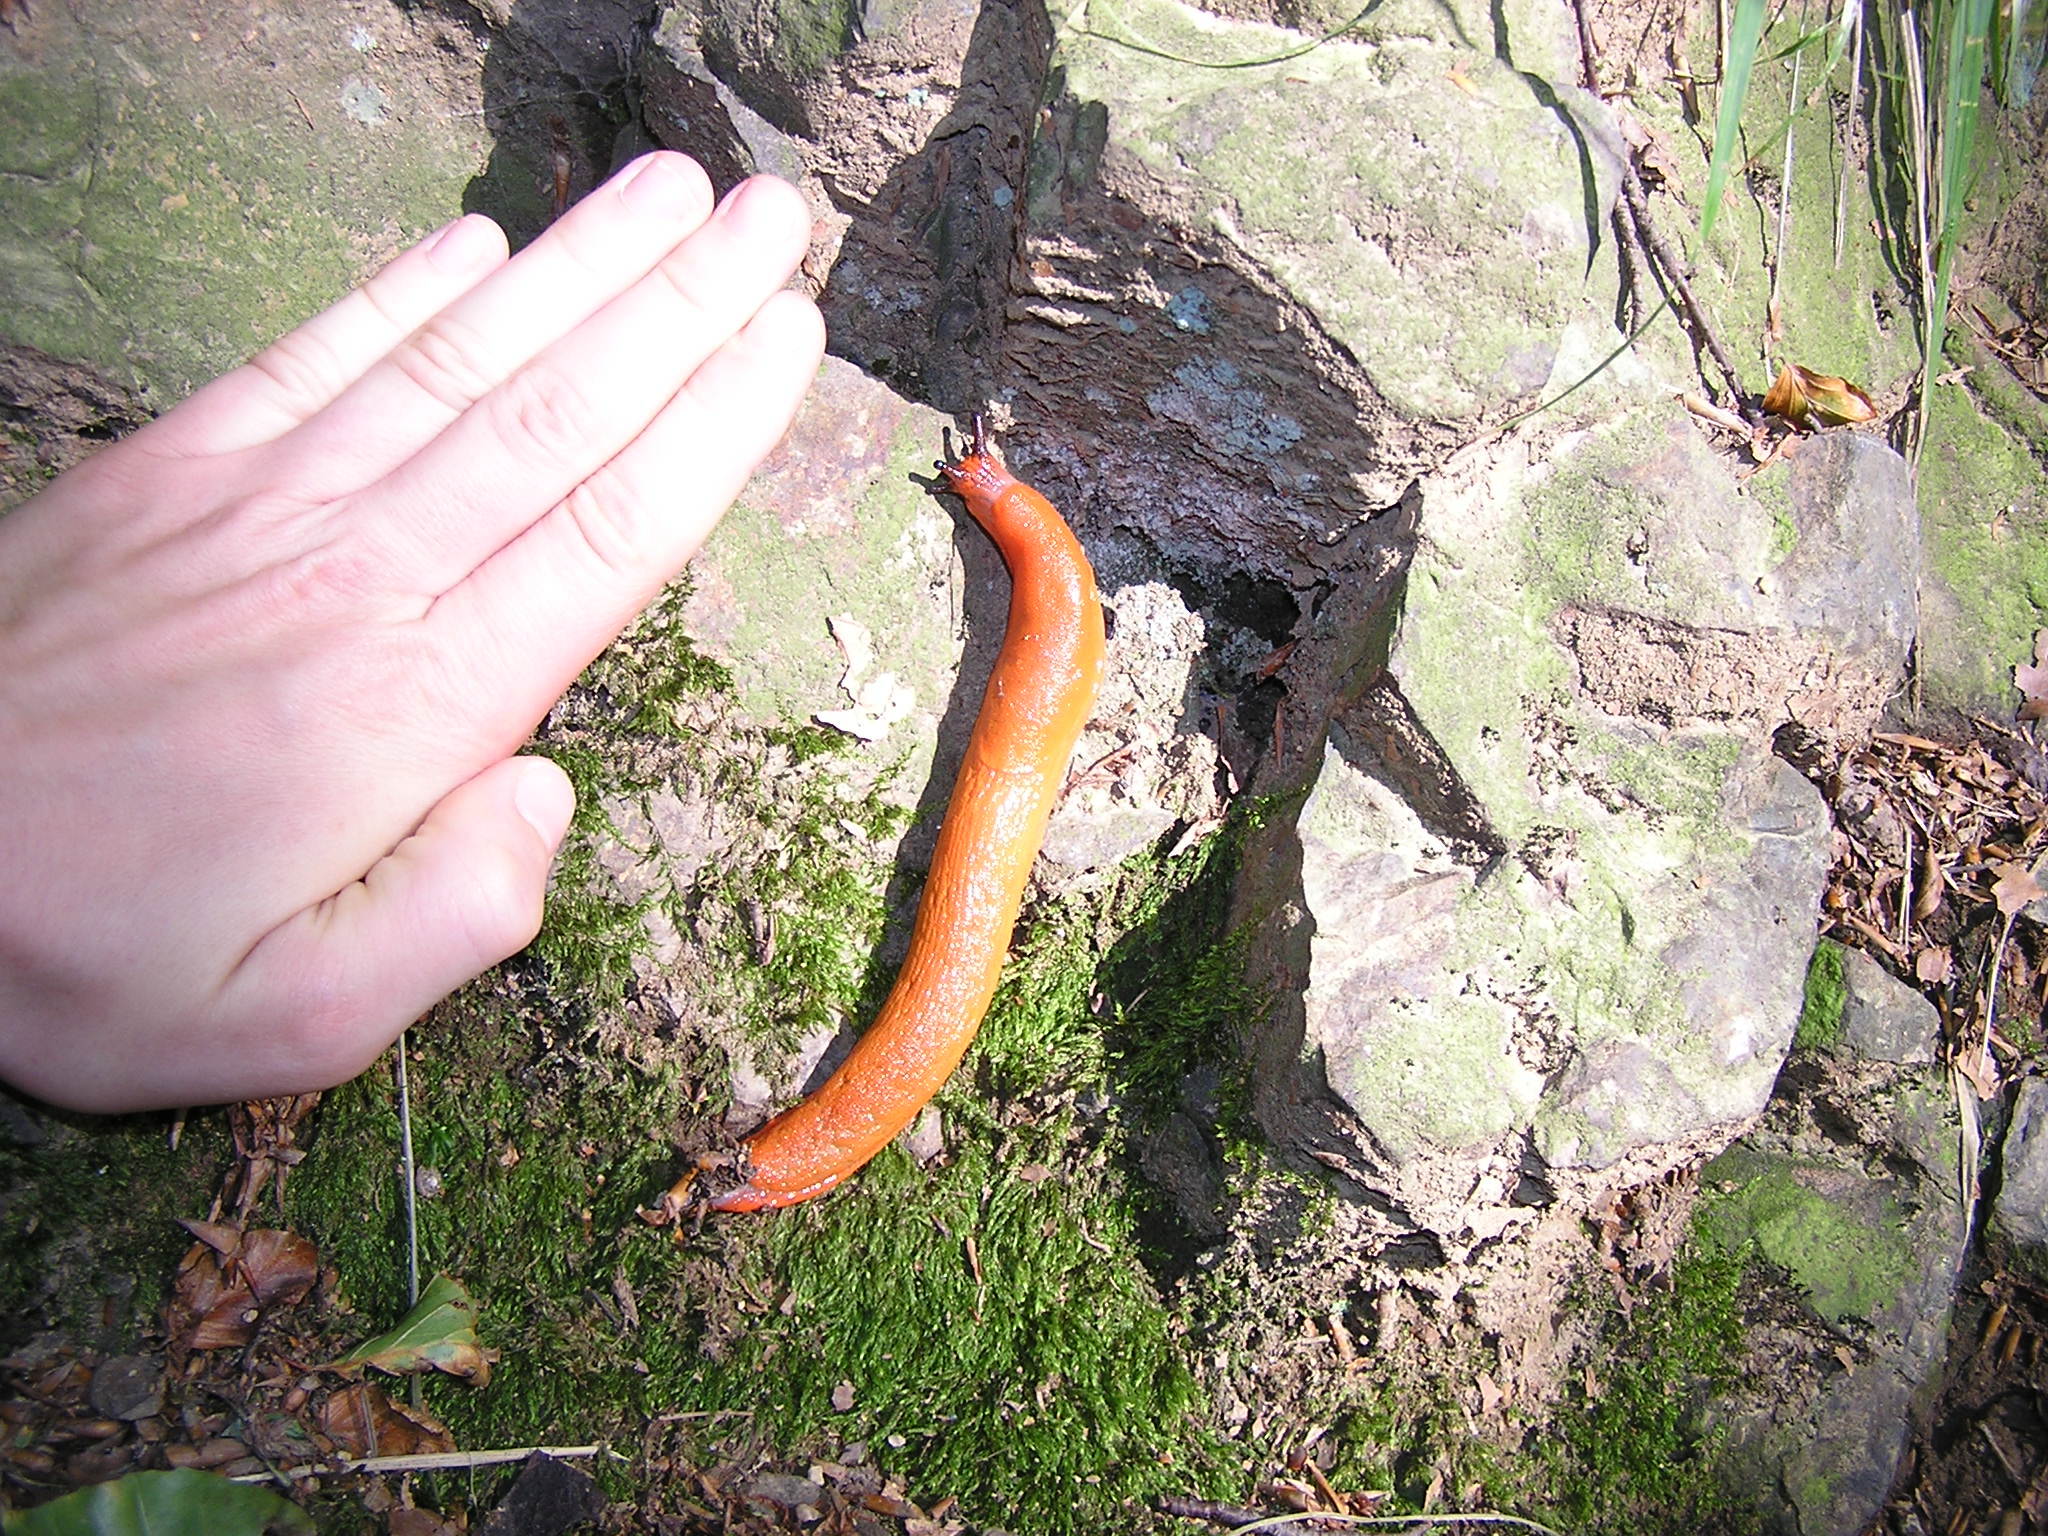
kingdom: Animalia
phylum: Mollusca
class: Gastropoda
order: Stylommatophora
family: Arionidae
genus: Arion
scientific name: Arion rufus
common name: Chocolate arion
